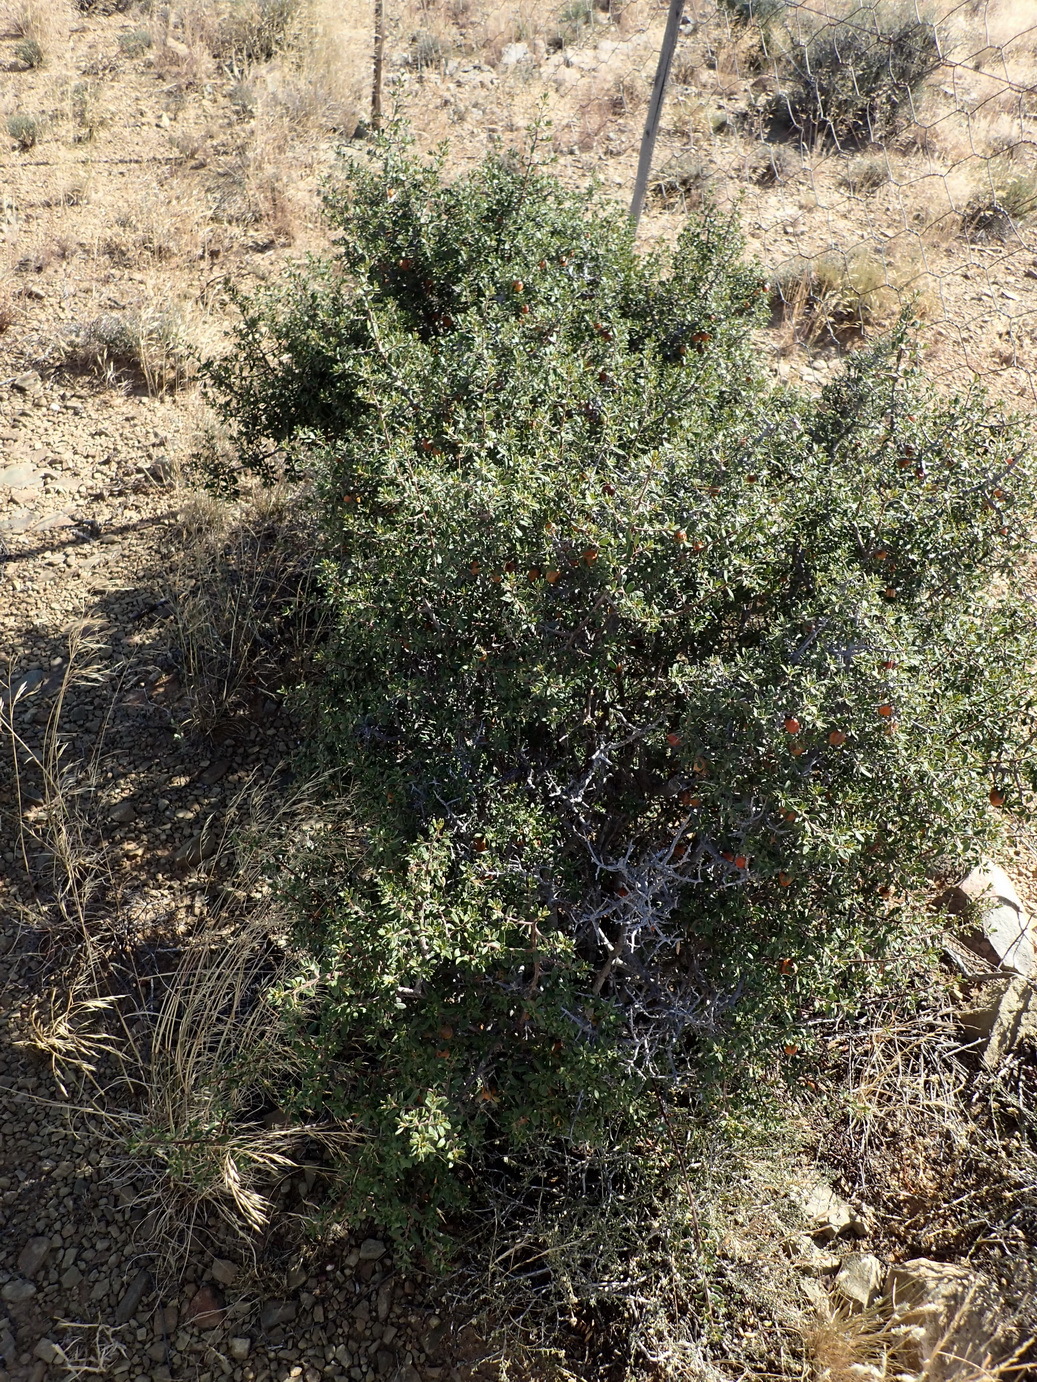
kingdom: Plantae
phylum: Tracheophyta
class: Magnoliopsida
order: Ericales
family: Ebenaceae
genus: Diospyros
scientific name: Diospyros lycioides
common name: Red star apple
